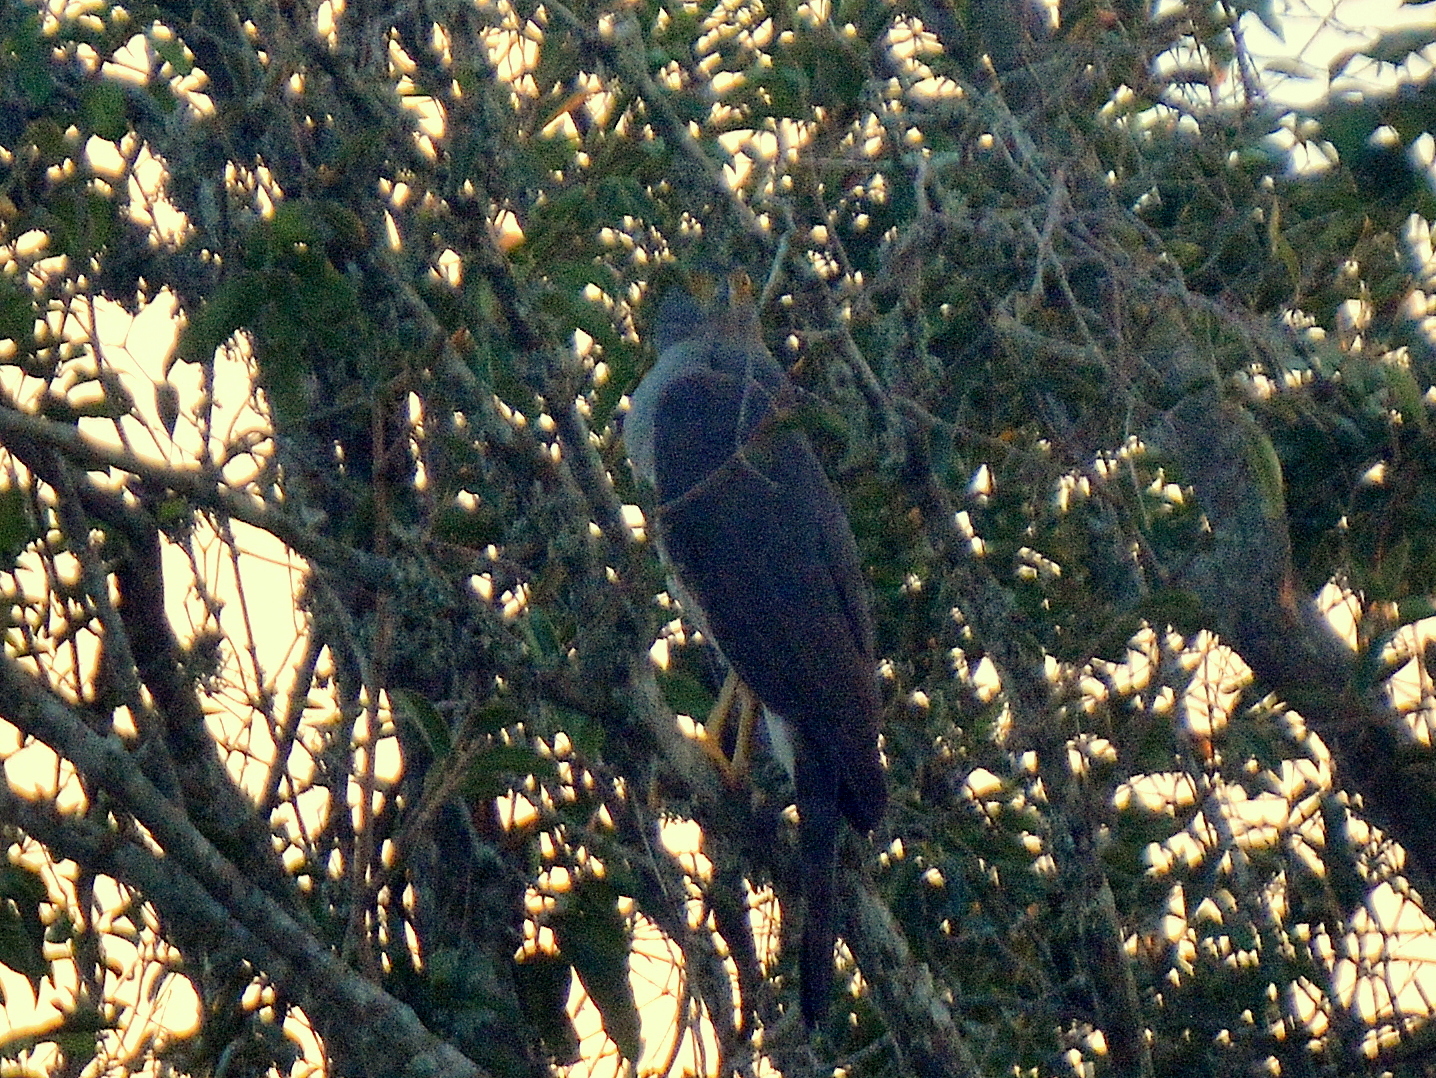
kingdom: Animalia
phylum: Chordata
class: Aves
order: Accipitriformes
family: Accipitridae
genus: Accipiter
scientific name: Accipiter bicolor
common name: Bicolored hawk
